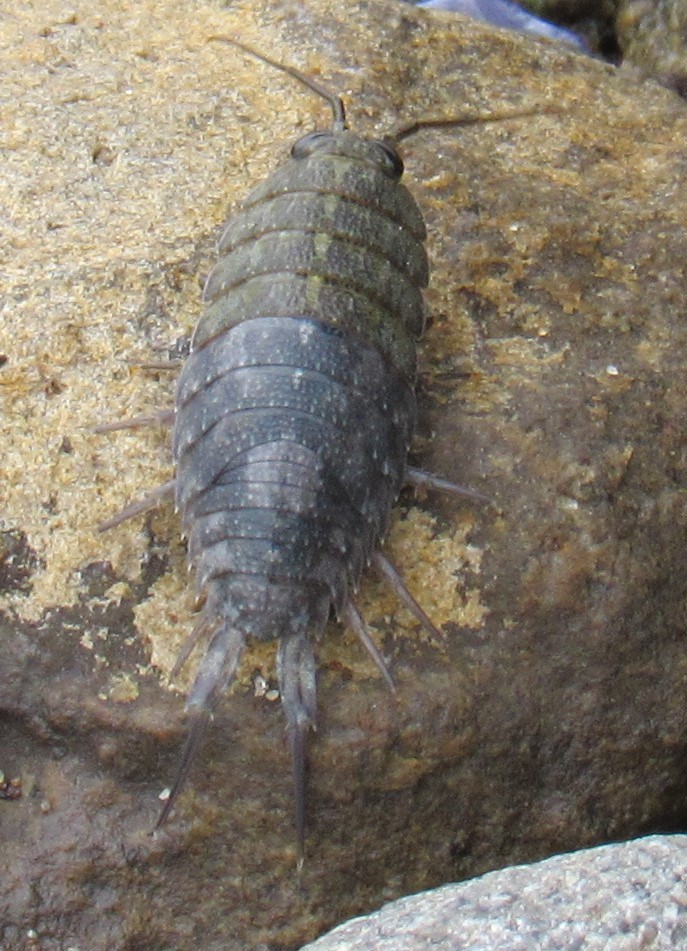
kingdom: Animalia
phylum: Arthropoda
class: Malacostraca
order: Isopoda
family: Ligiidae
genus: Ligia
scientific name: Ligia occidentalis
